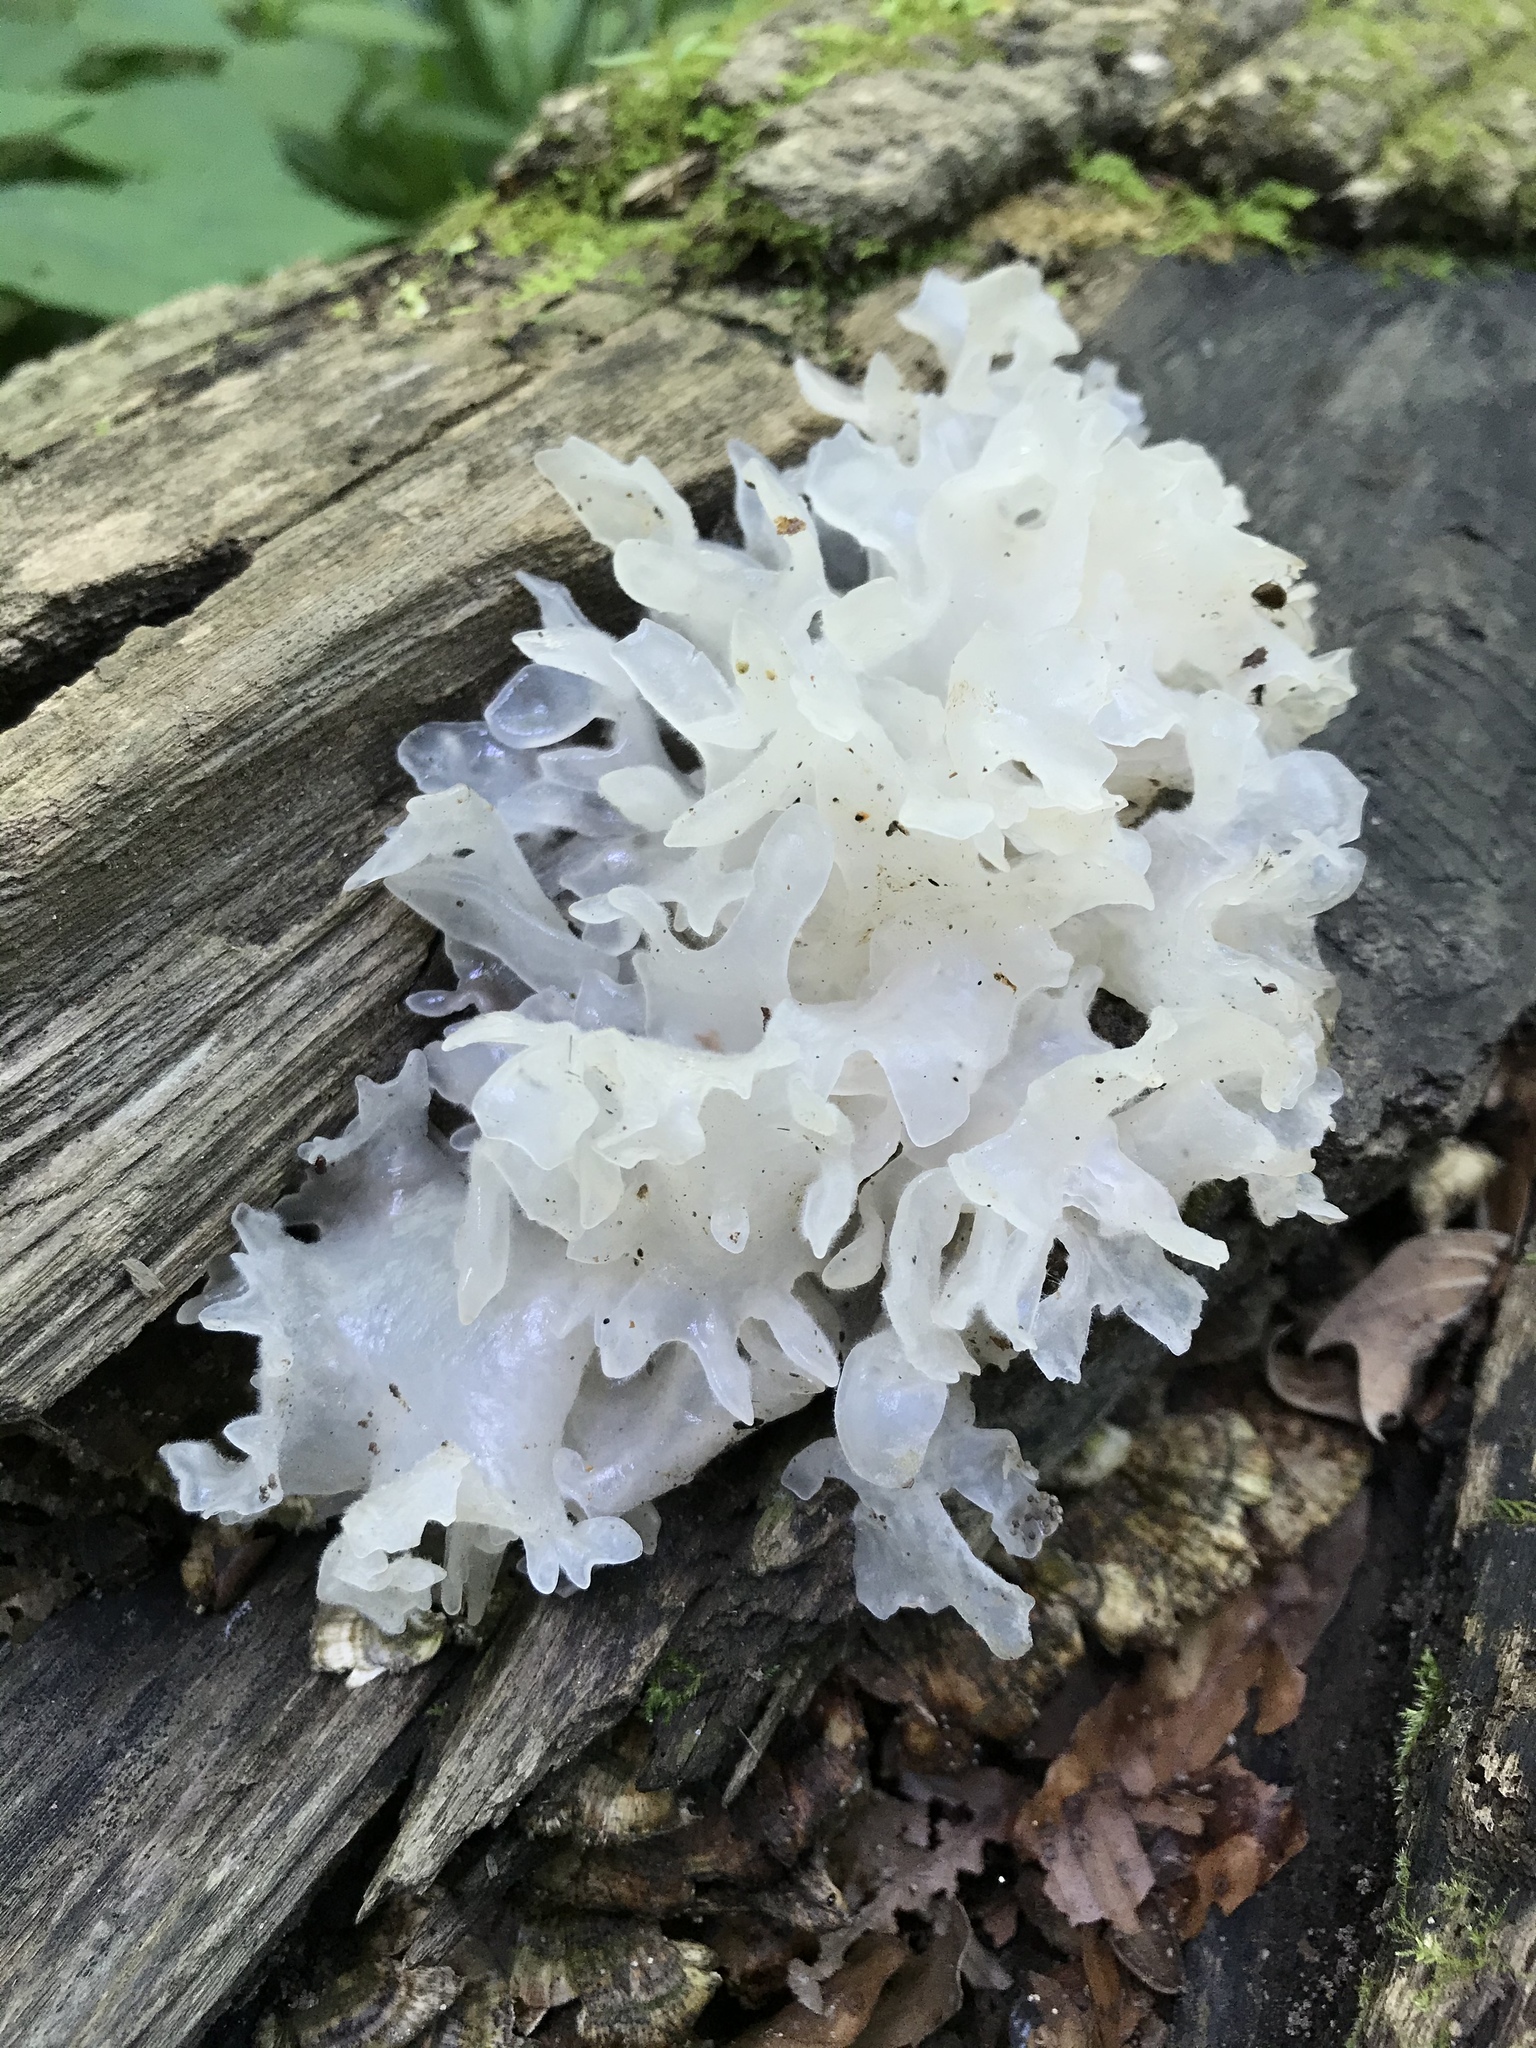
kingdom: Fungi
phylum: Basidiomycota
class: Tremellomycetes
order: Tremellales
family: Tremellaceae
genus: Tremella
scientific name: Tremella fuciformis
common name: Snow fungus
